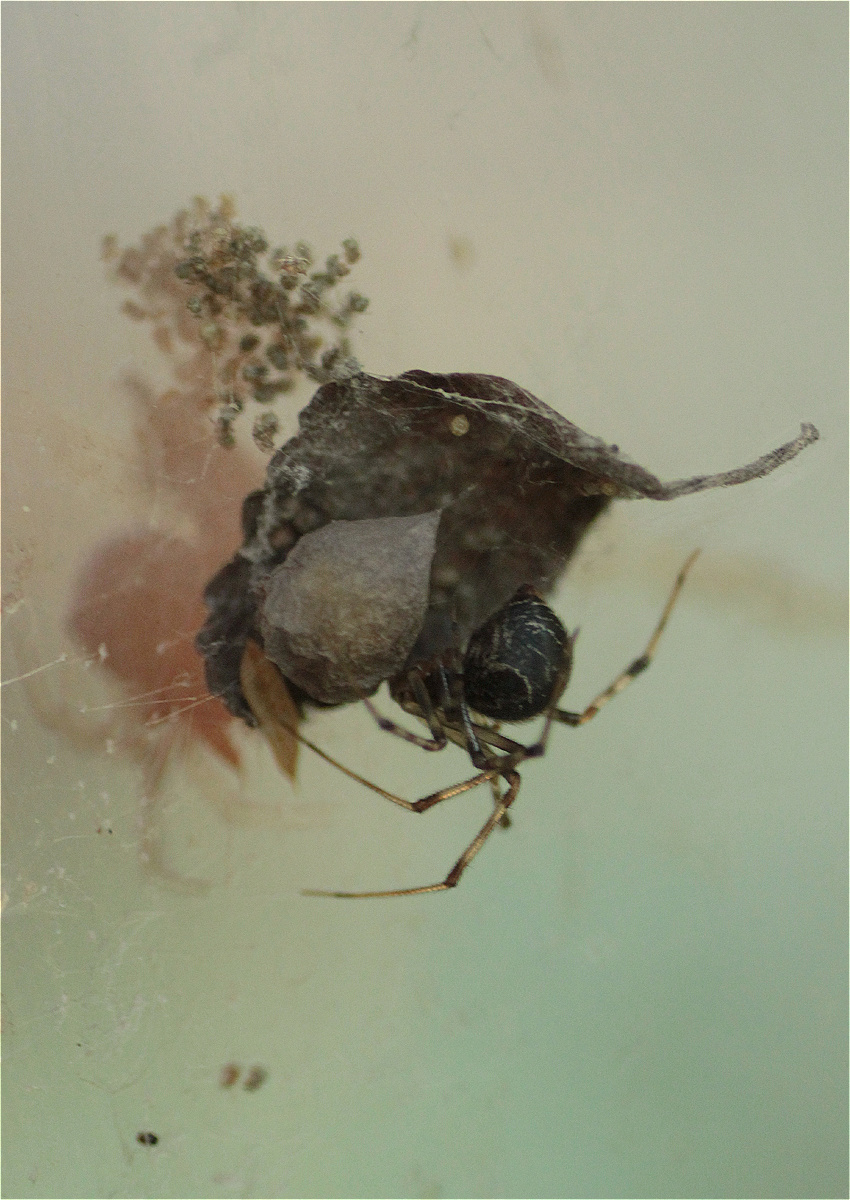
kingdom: Animalia
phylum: Arthropoda
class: Arachnida
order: Araneae
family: Theridiidae
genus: Parasteatoda
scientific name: Parasteatoda tepidariorum
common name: Common house spider
